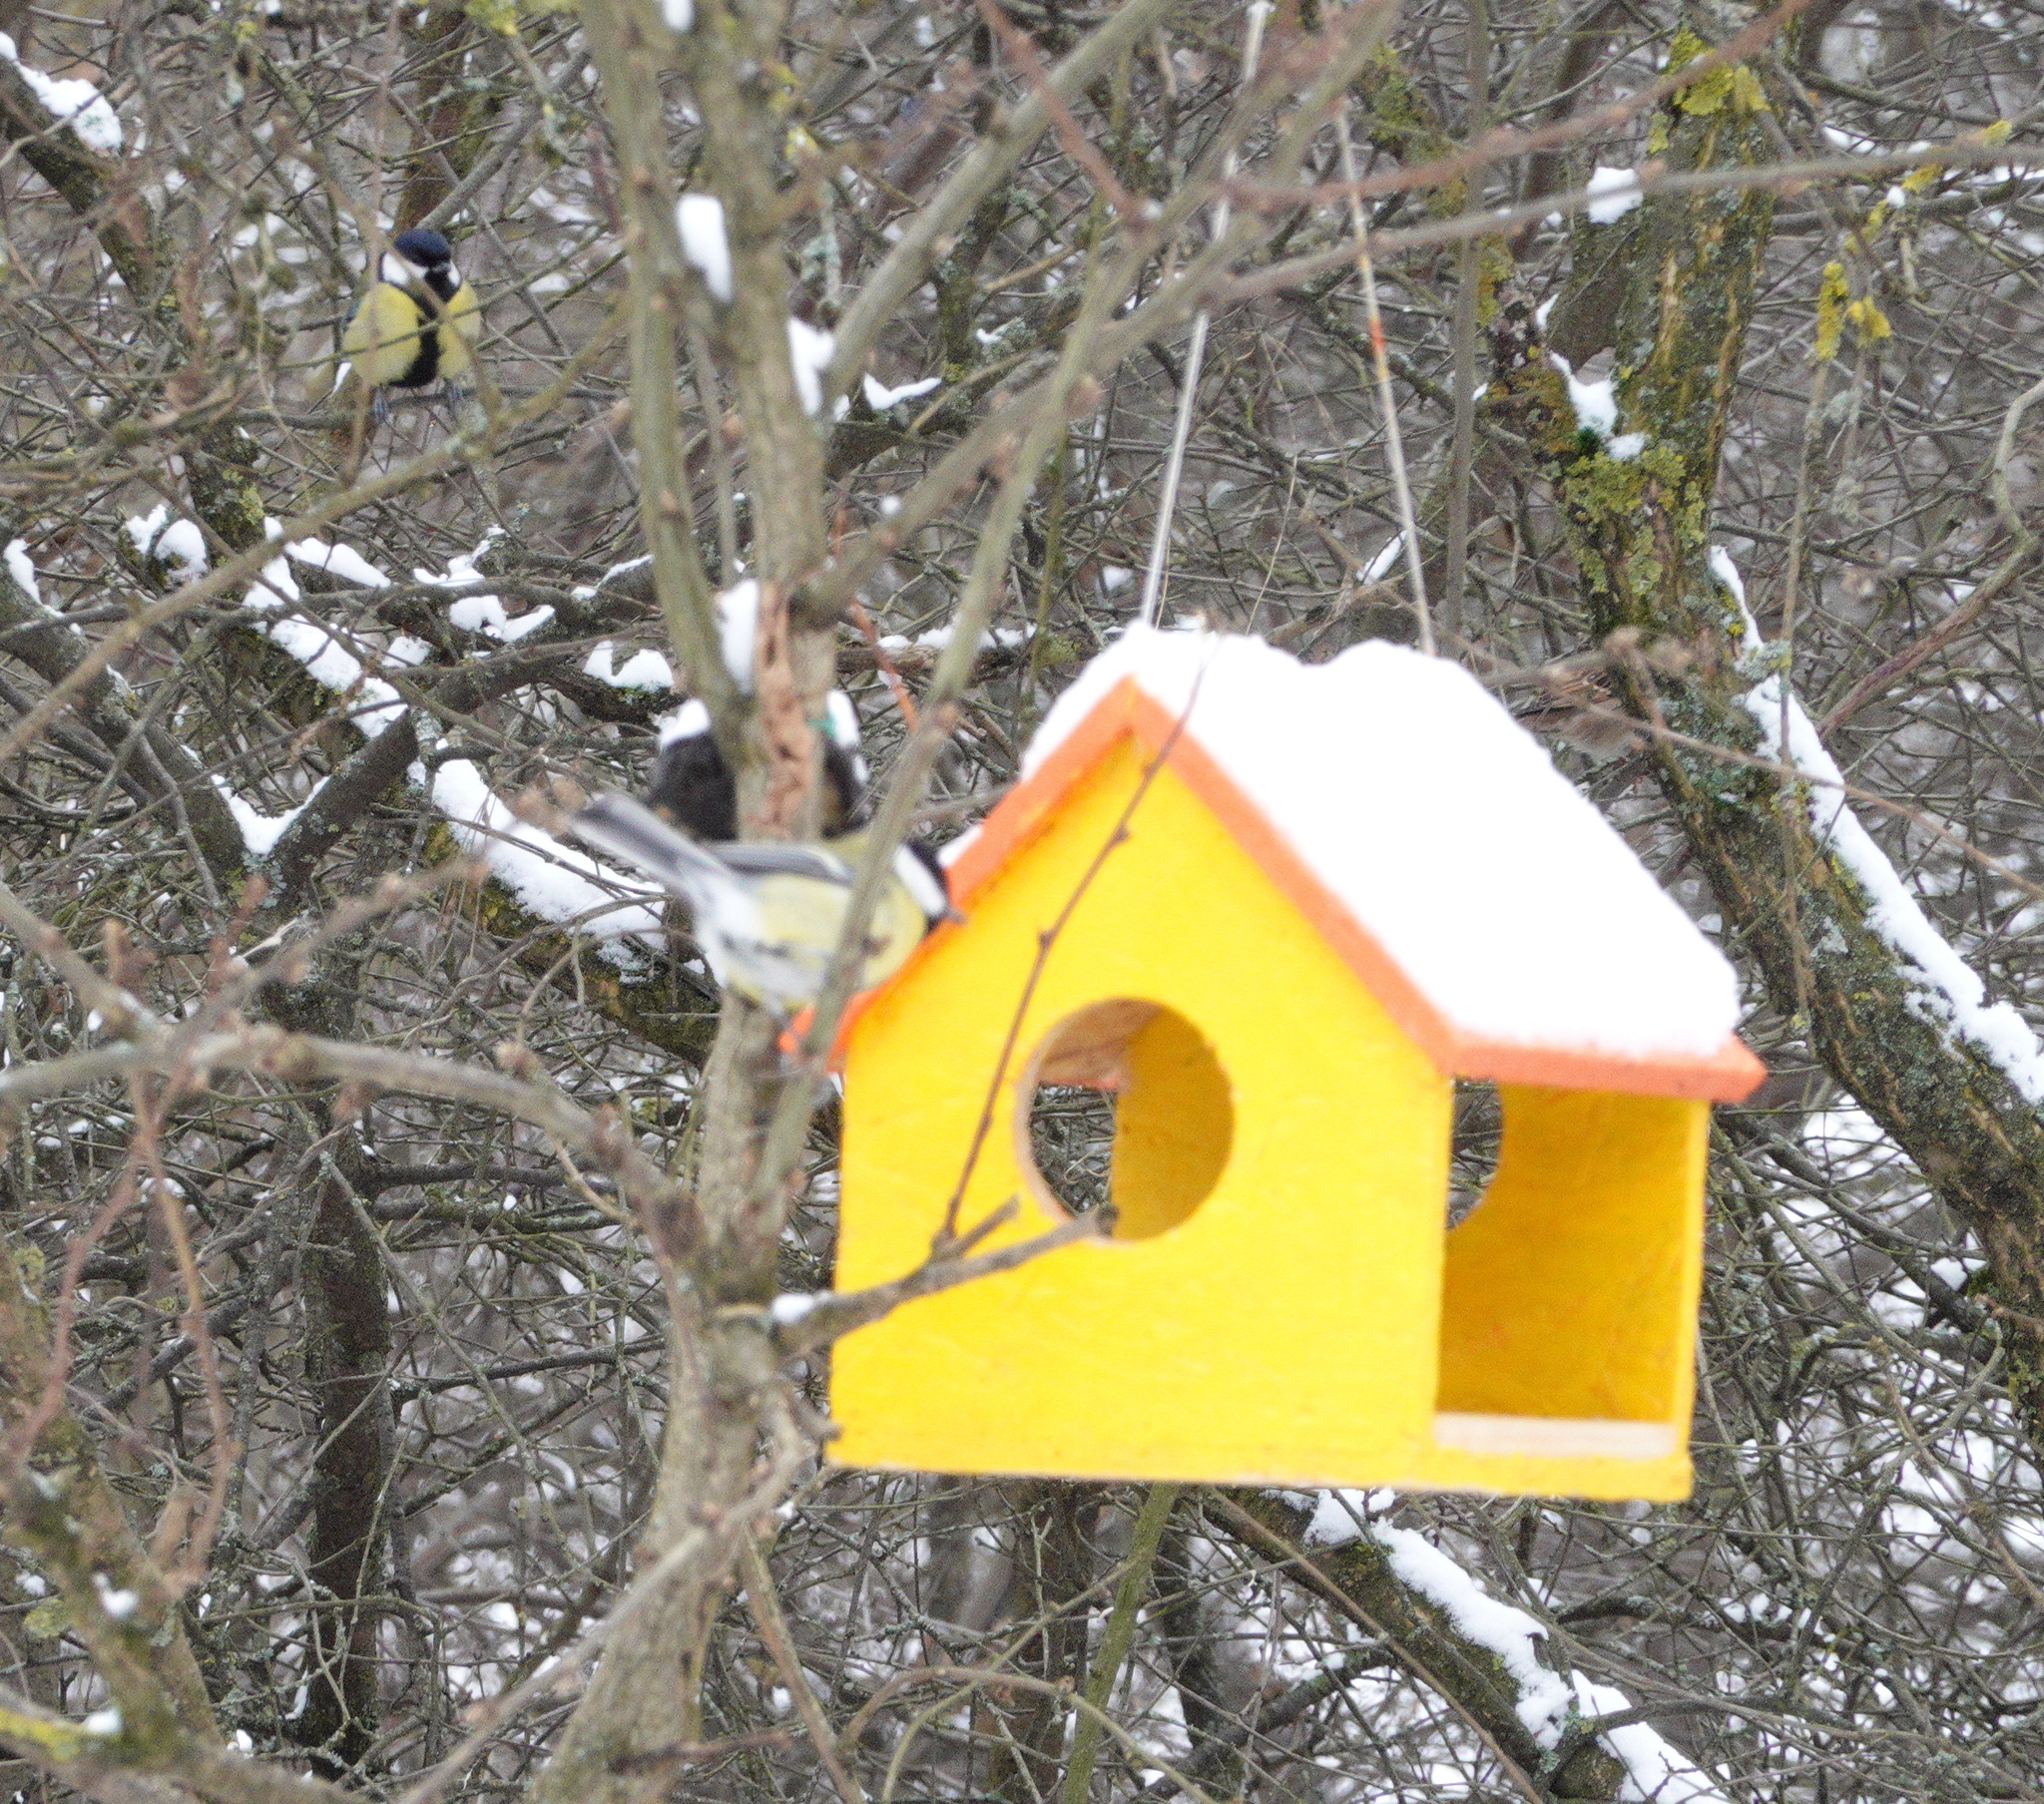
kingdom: Animalia
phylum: Chordata
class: Aves
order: Passeriformes
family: Paridae
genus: Parus
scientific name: Parus major
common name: Great tit
